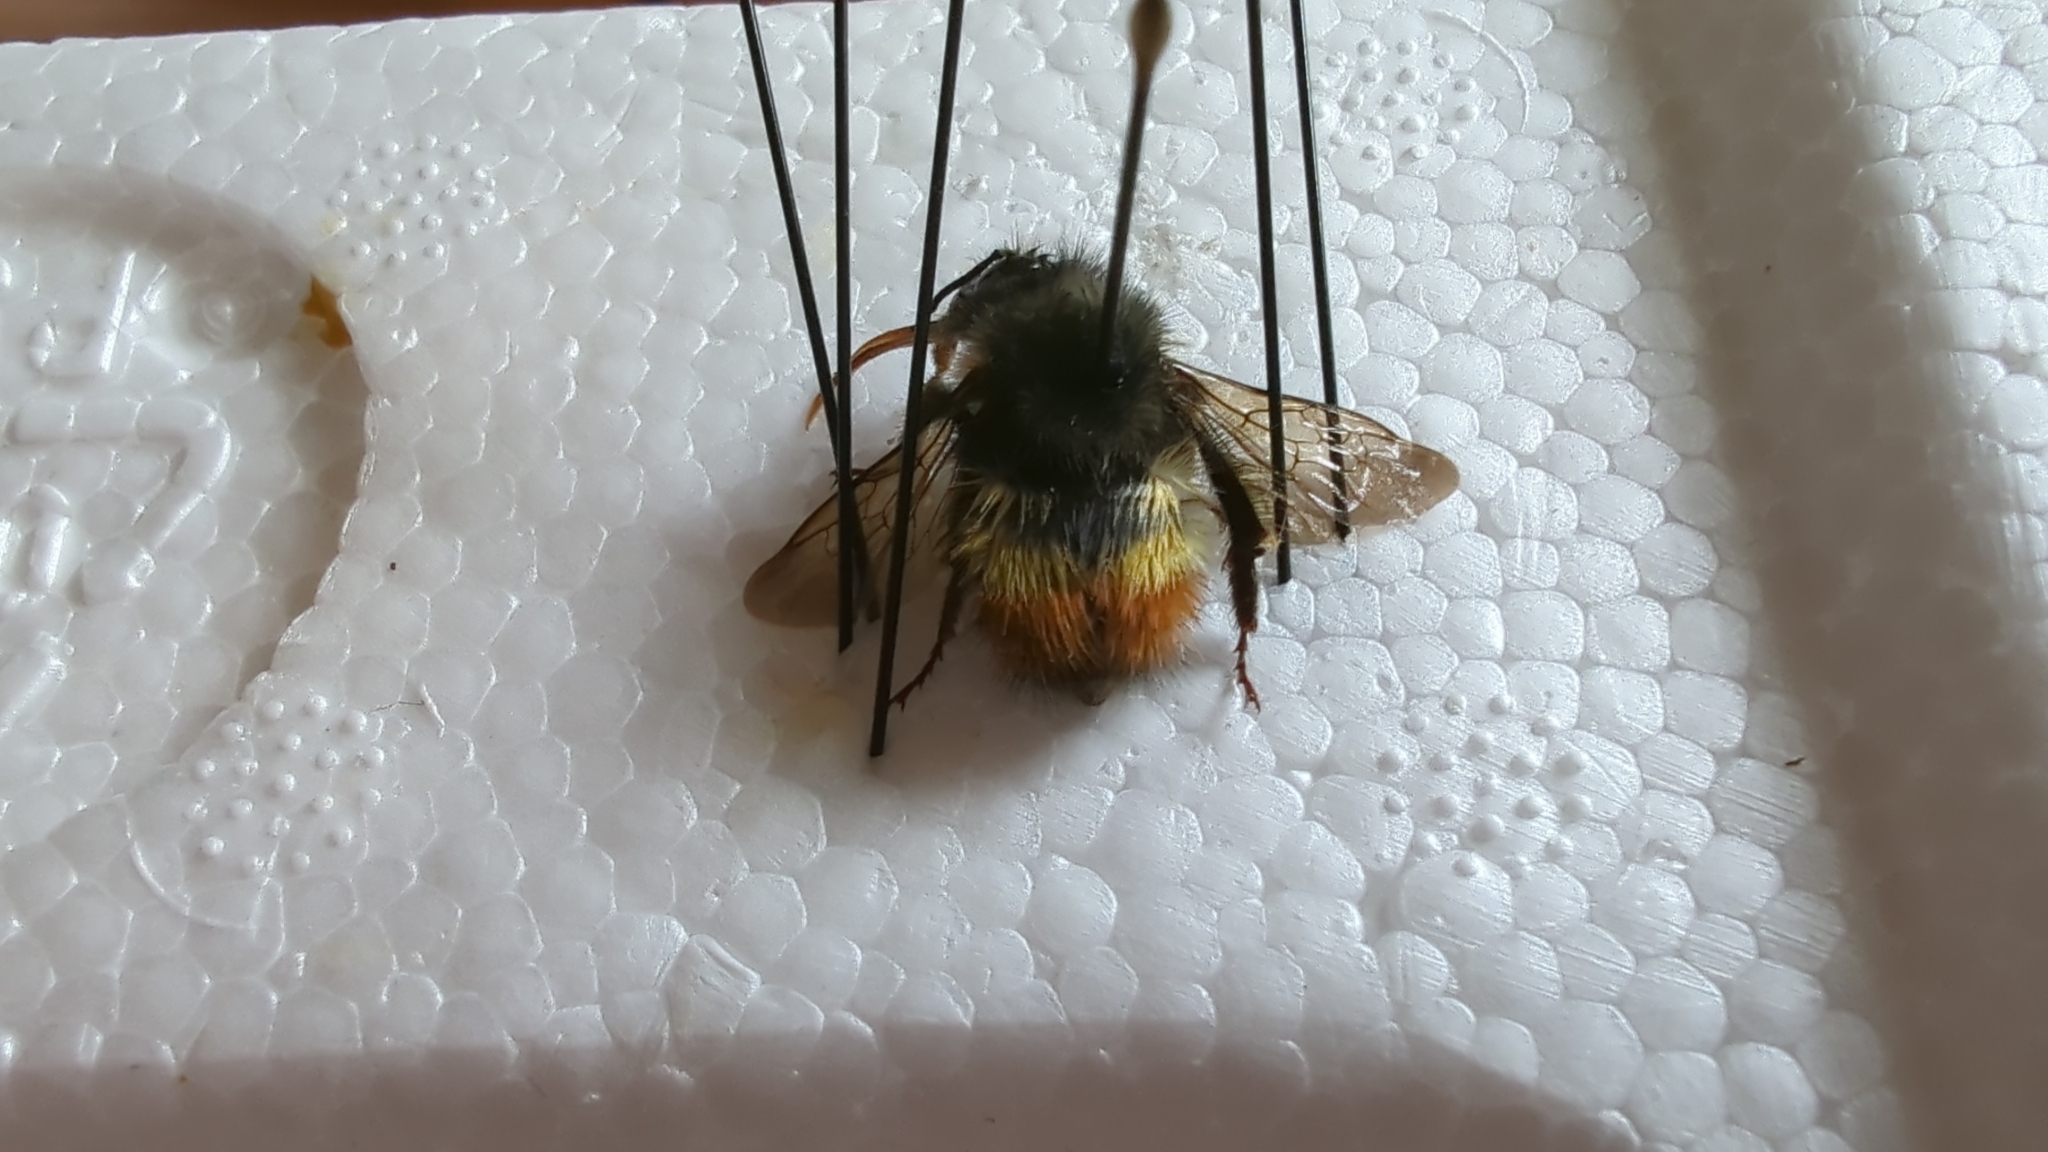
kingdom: Animalia
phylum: Arthropoda
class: Insecta
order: Hymenoptera
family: Apidae
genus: Bombus
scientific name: Bombus flavifrons
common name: Yellow head bumble bee
